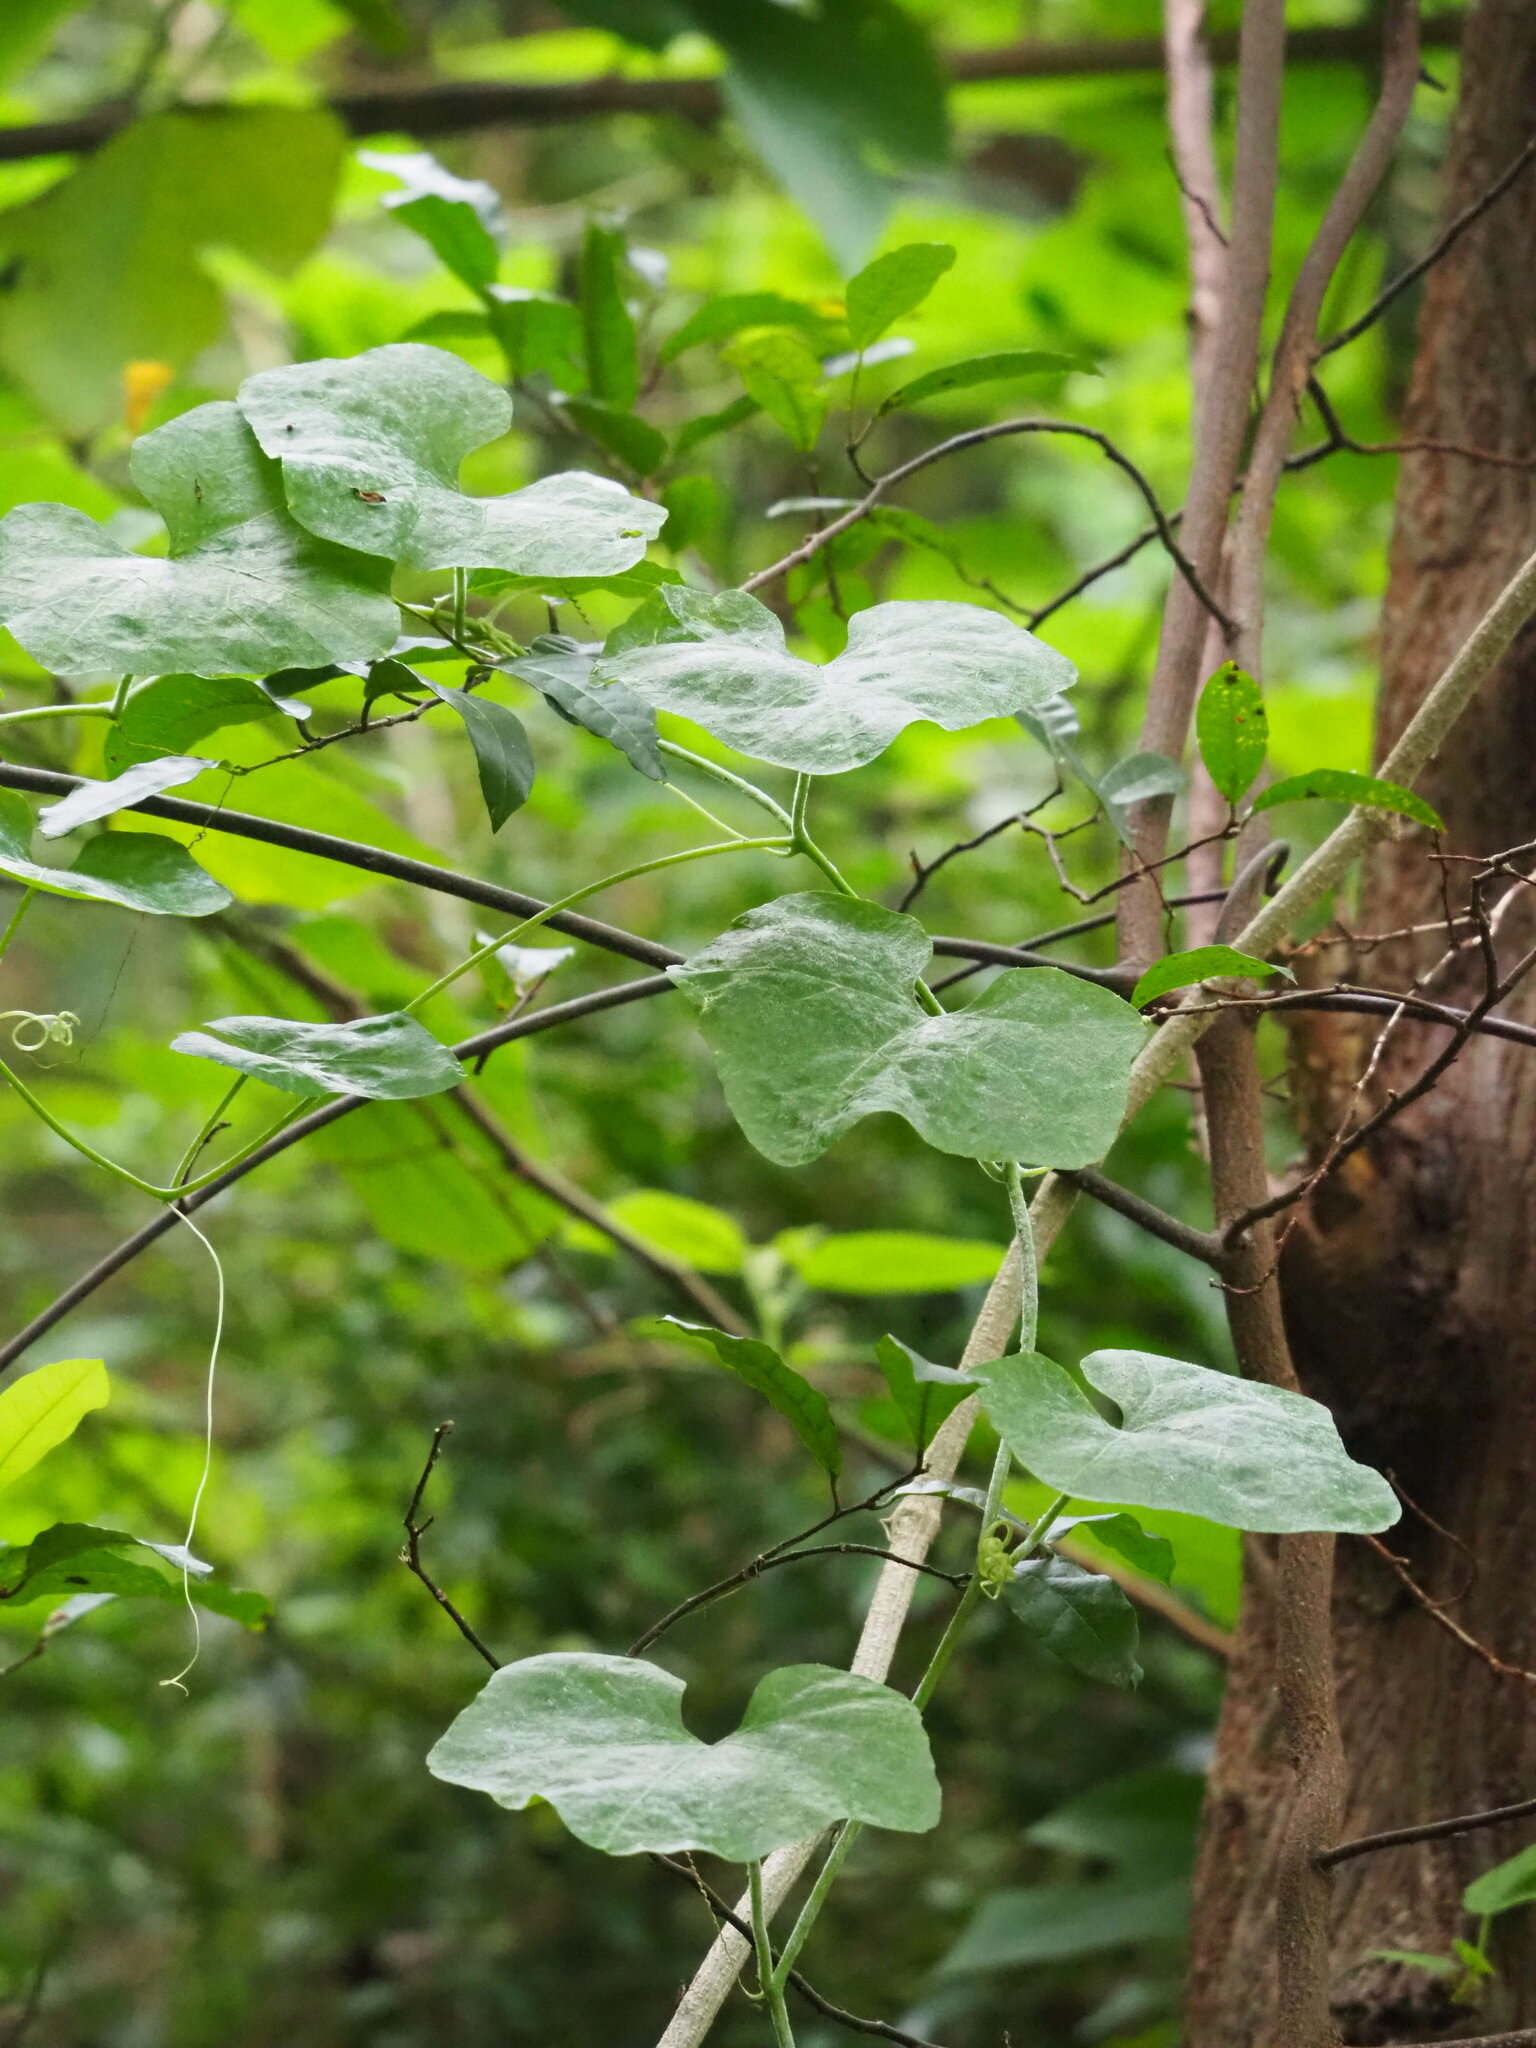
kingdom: Plantae
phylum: Tracheophyta
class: Magnoliopsida
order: Cucurbitales
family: Cucurbitaceae
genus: Coccinia
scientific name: Coccinia grandis
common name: Ivy gourd
